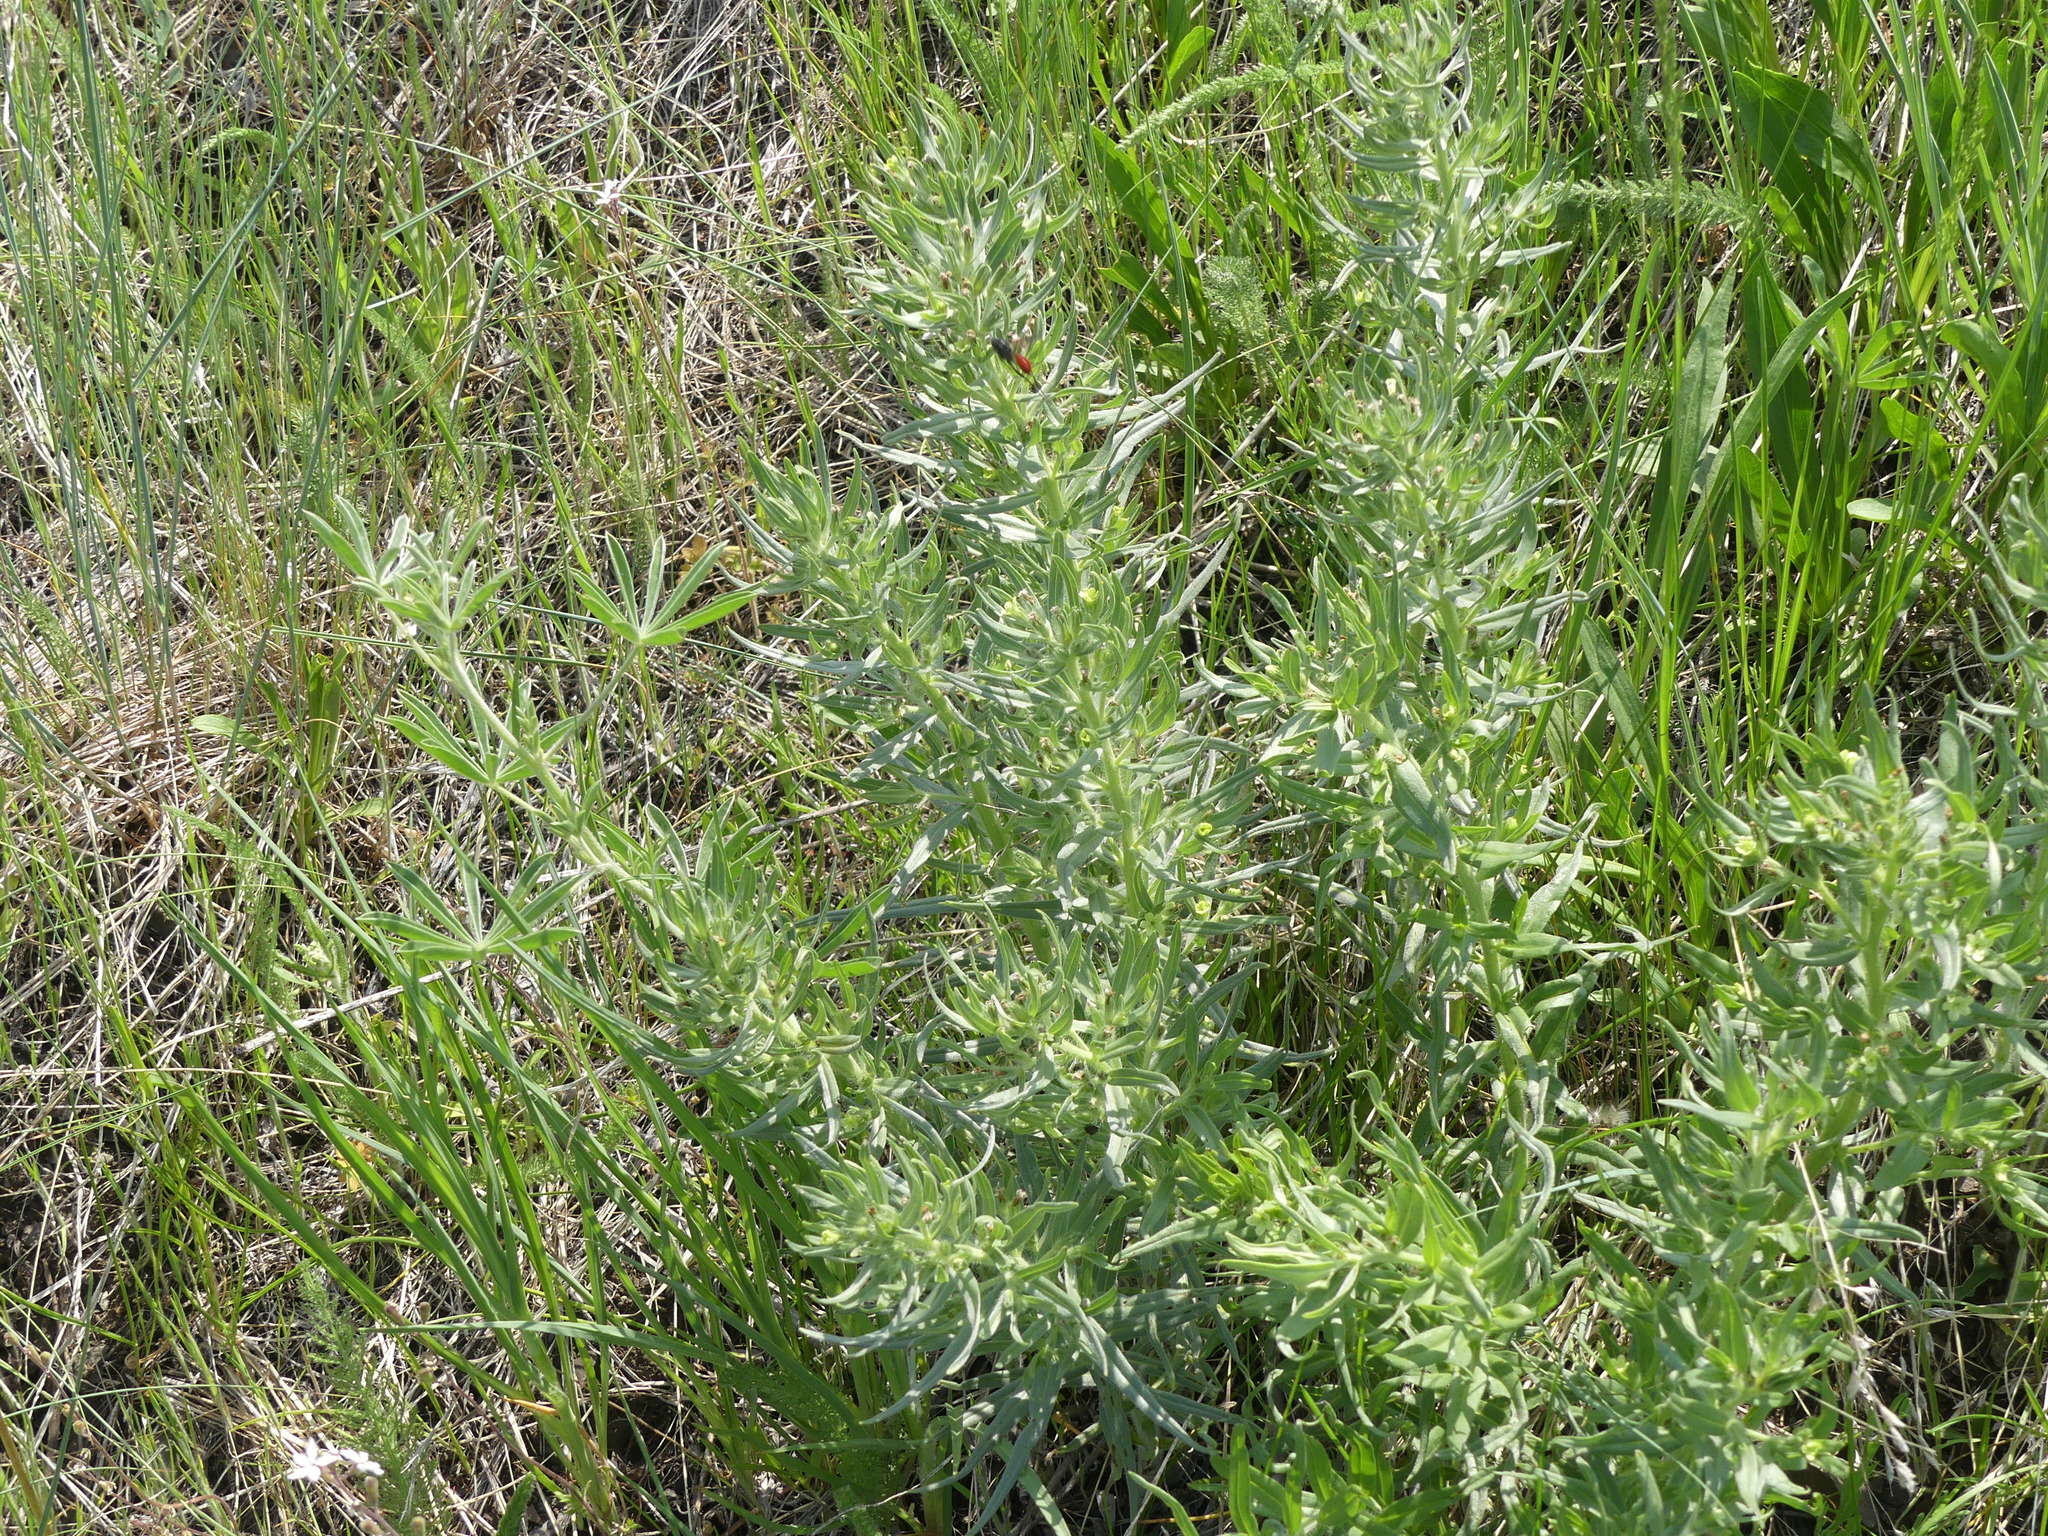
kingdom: Plantae
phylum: Tracheophyta
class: Magnoliopsida
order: Boraginales
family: Boraginaceae
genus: Lithospermum
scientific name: Lithospermum ruderale
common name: Western gromwell
